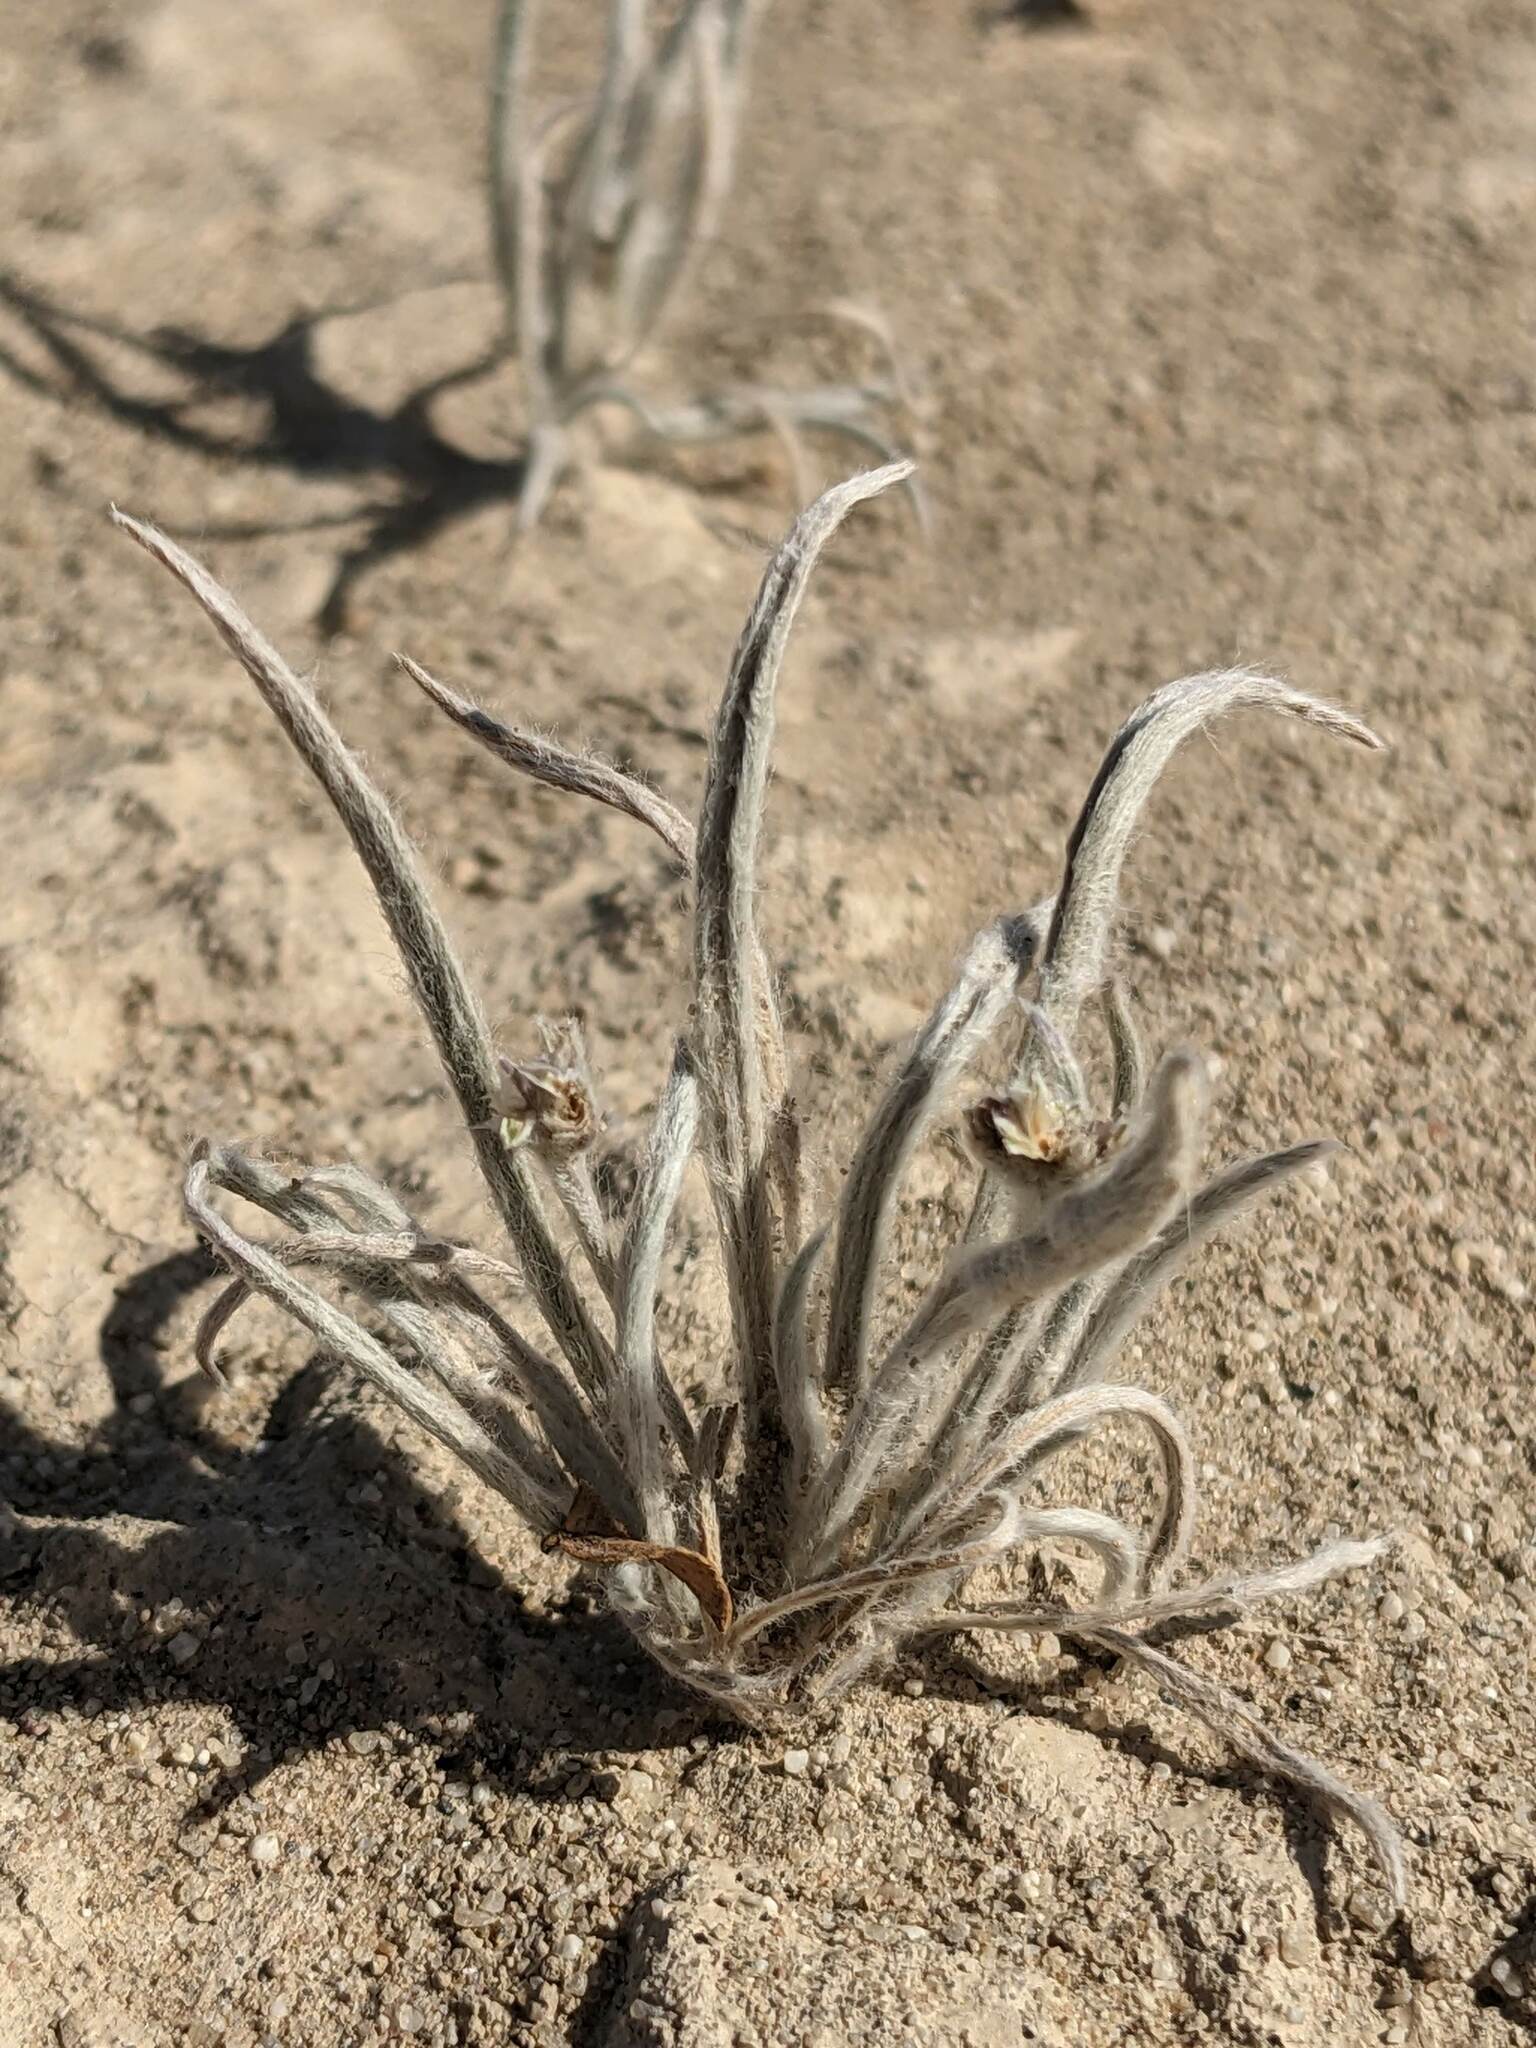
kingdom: Plantae
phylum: Tracheophyta
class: Magnoliopsida
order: Lamiales
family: Plantaginaceae
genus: Plantago
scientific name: Plantago ovata
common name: Blond plantain
